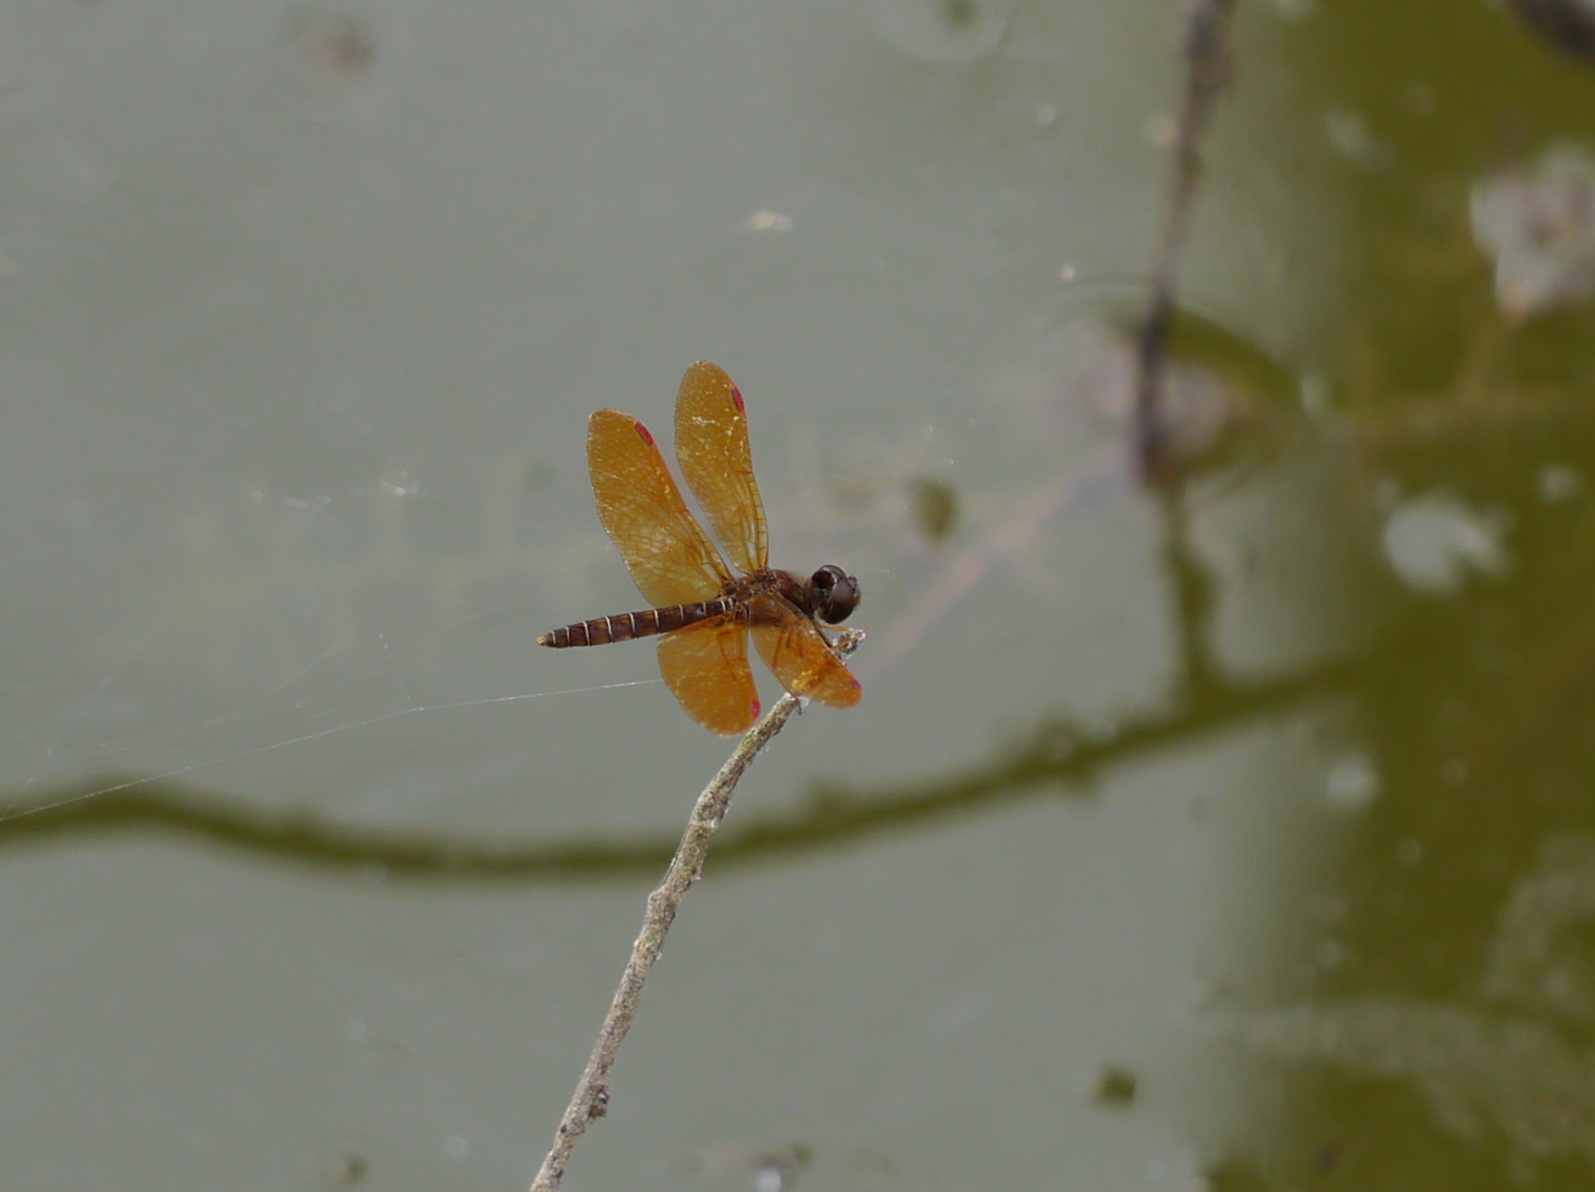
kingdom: Animalia
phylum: Arthropoda
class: Insecta
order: Odonata
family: Libellulidae
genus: Perithemis
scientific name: Perithemis tenera
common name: Eastern amberwing
